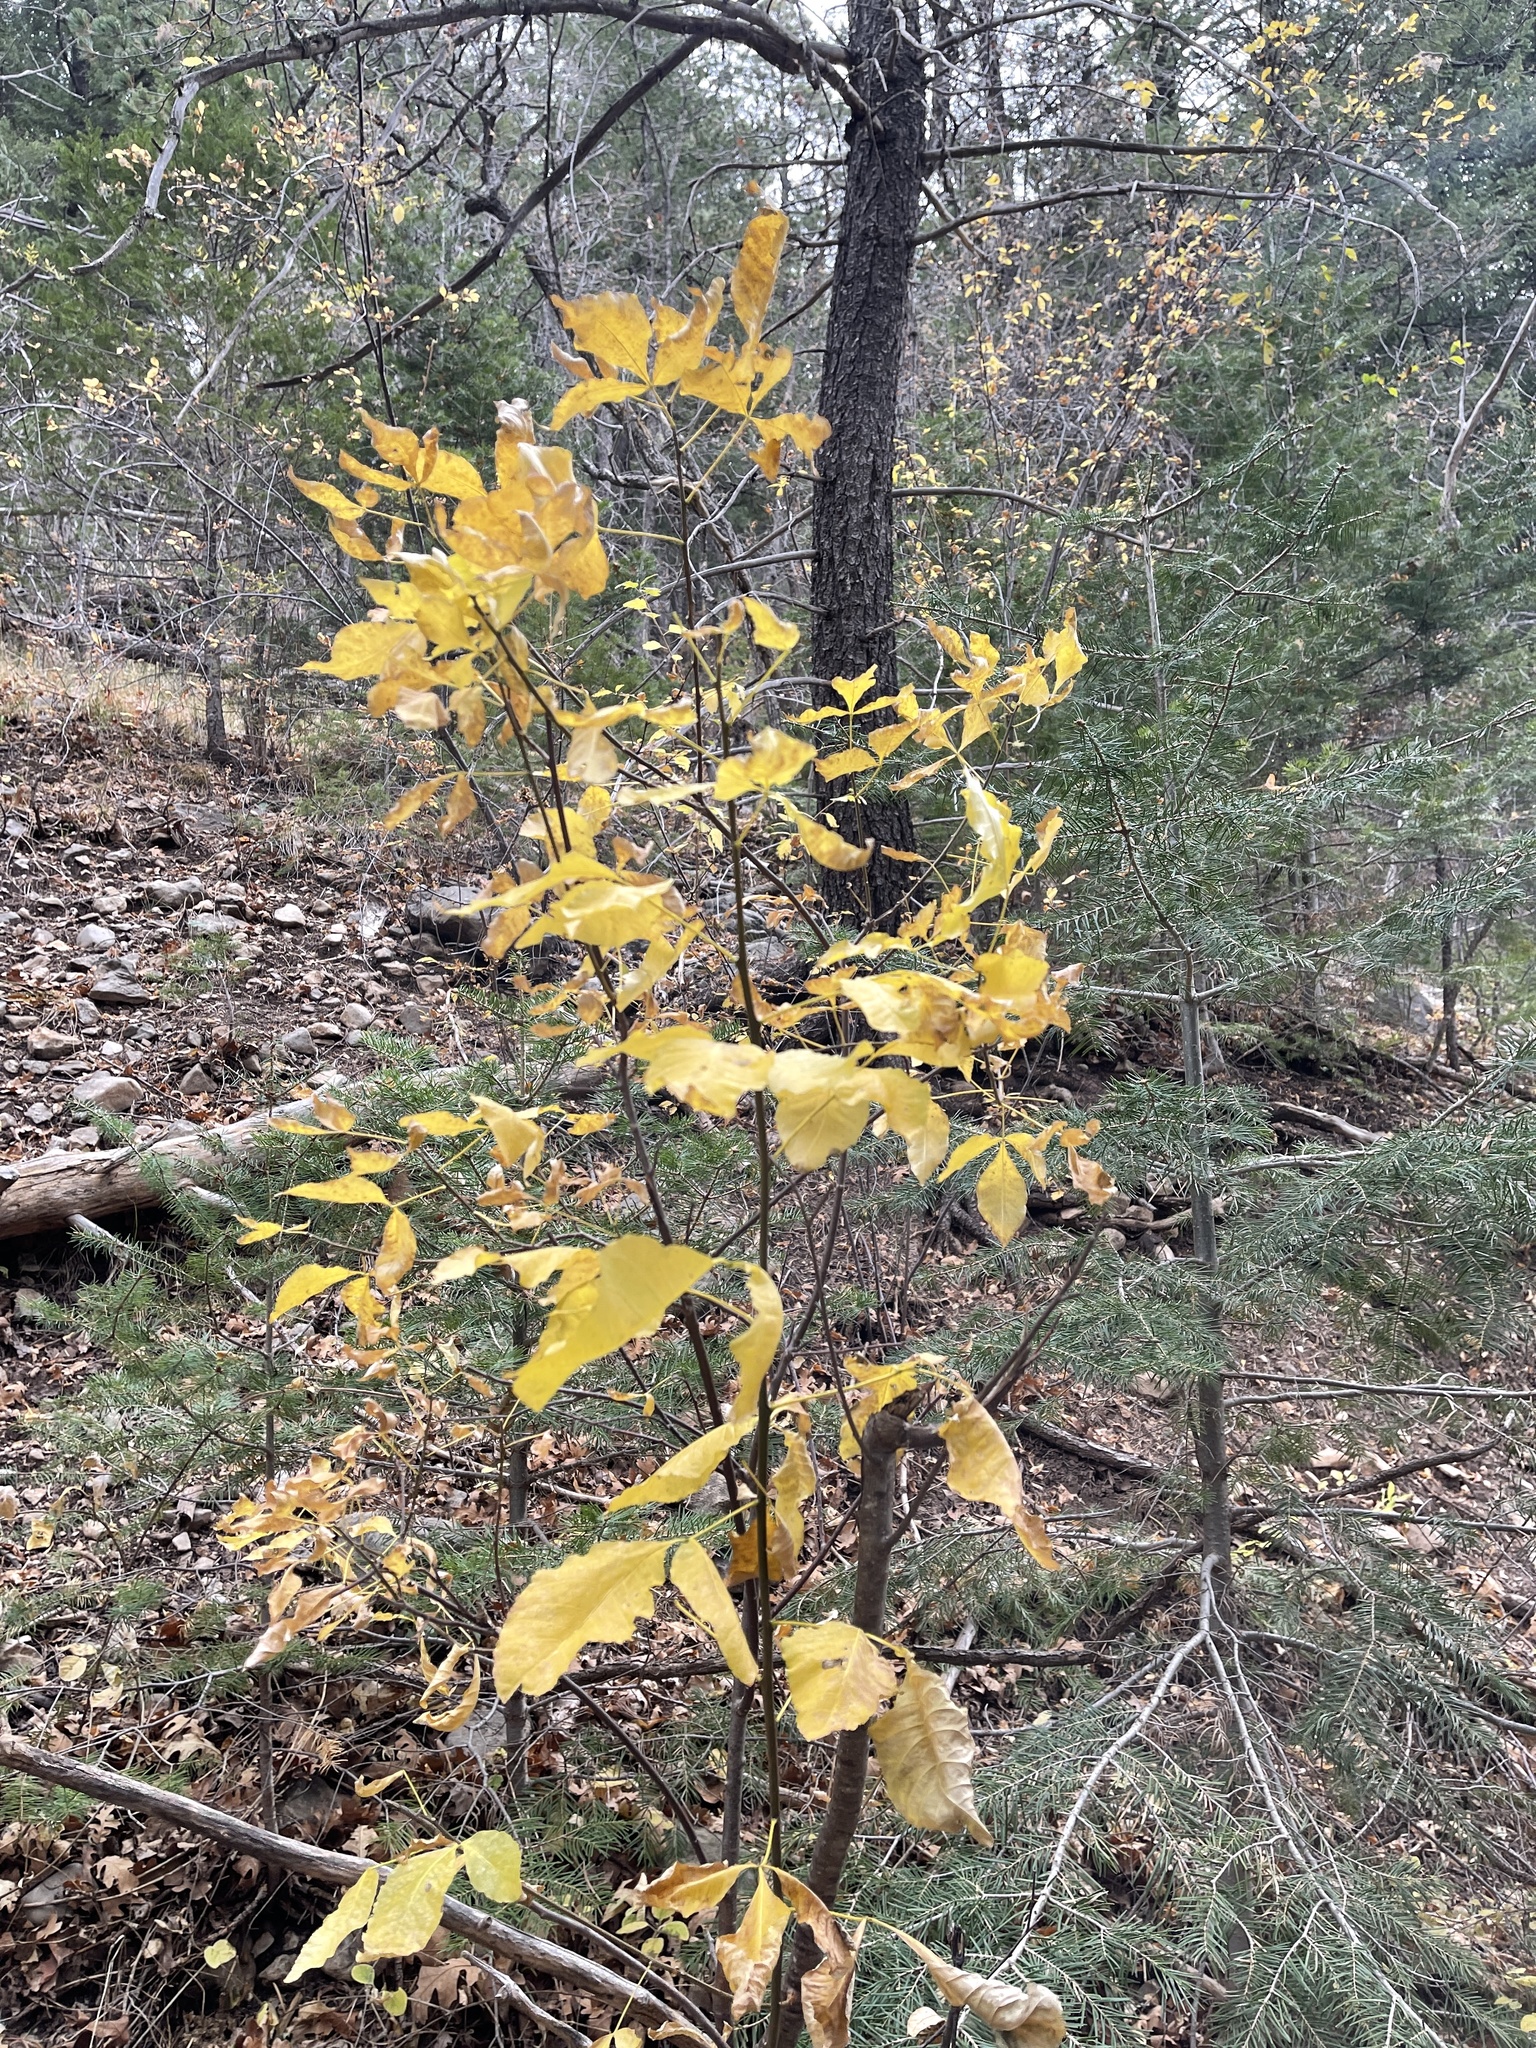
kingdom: Plantae
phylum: Tracheophyta
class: Magnoliopsida
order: Sapindales
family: Rutaceae
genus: Ptelea
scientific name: Ptelea trifoliata
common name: Common hop-tree
